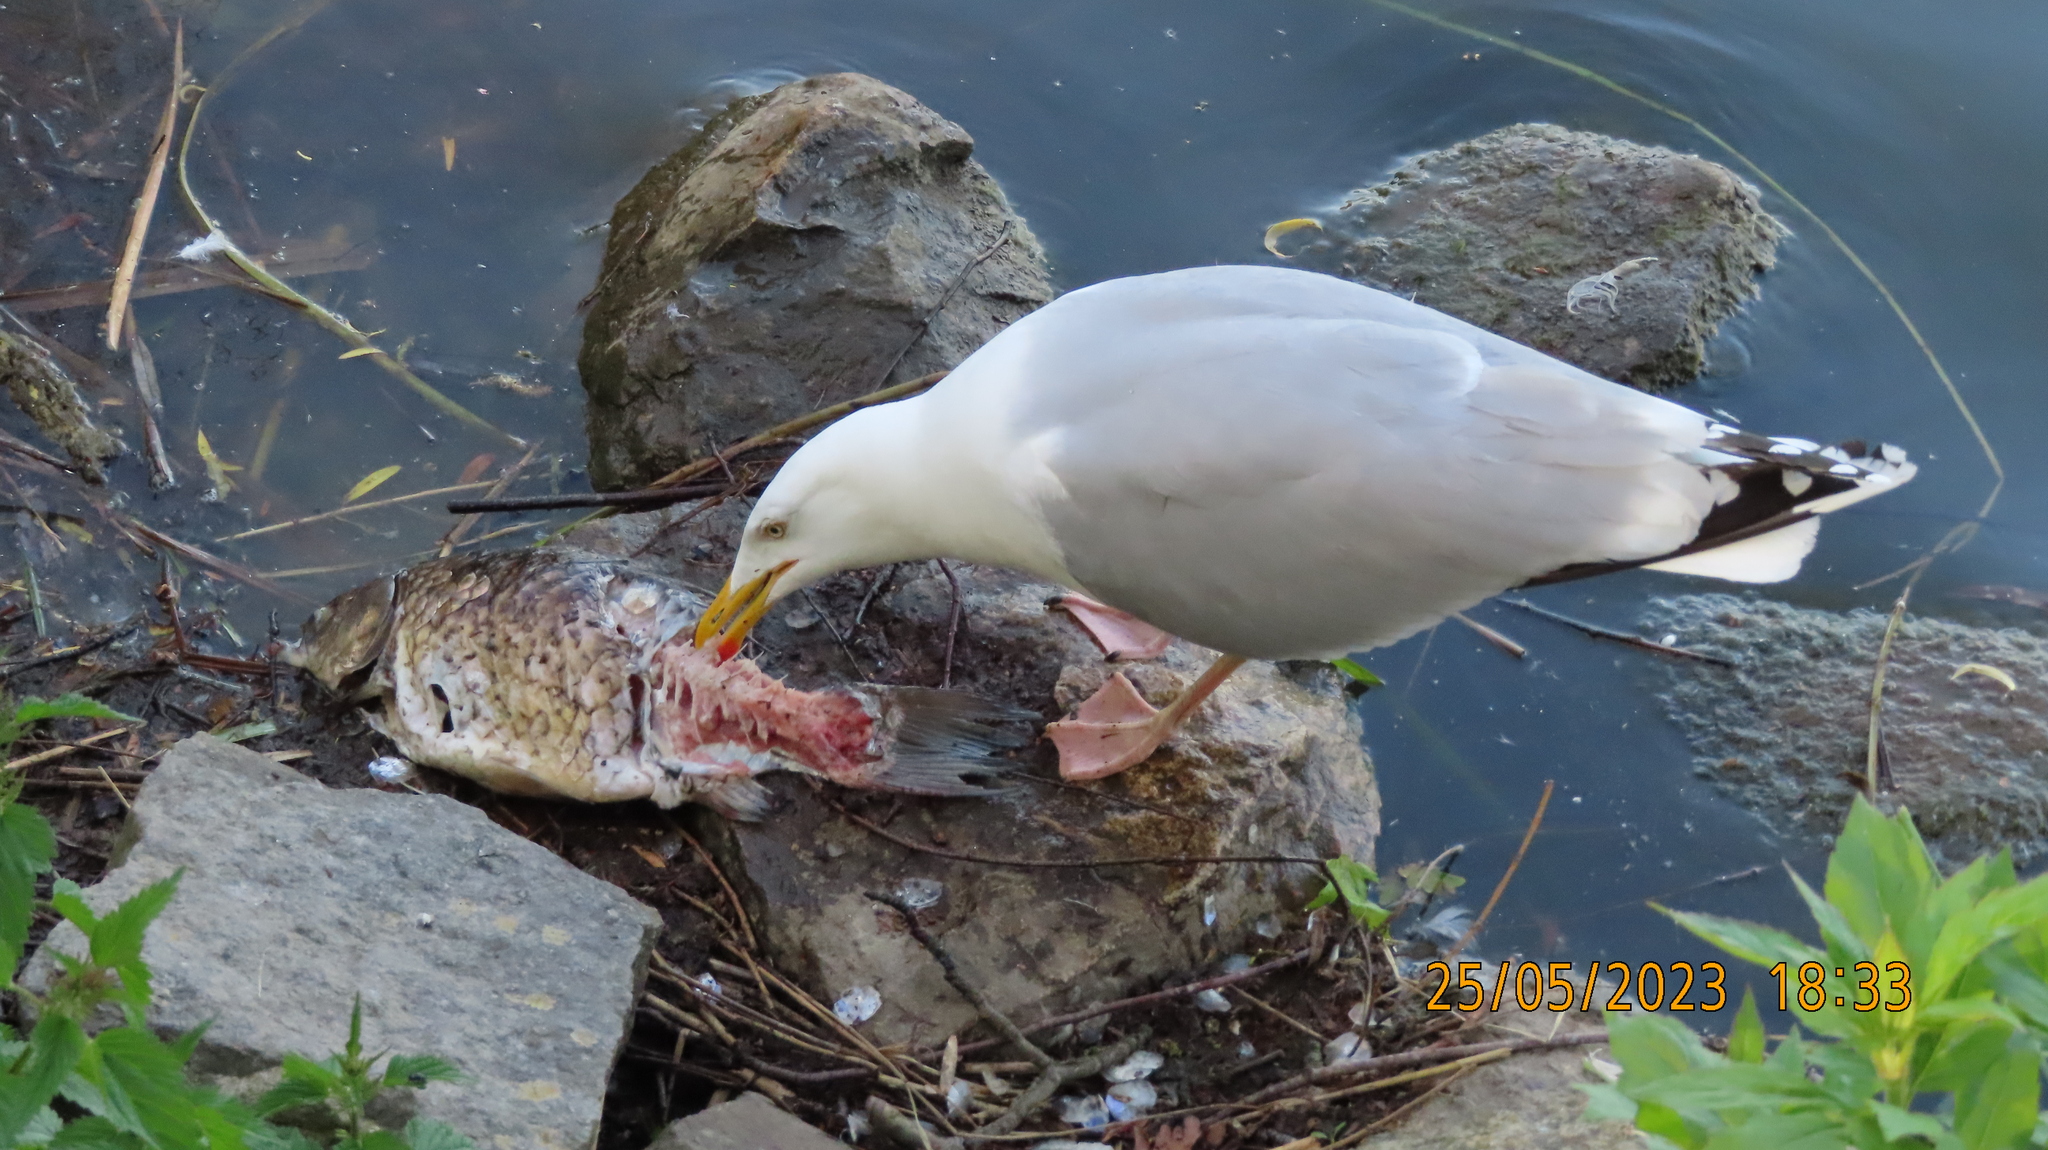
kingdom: Animalia
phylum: Chordata
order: Cypriniformes
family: Cyprinidae
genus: Carassius
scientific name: Carassius gibelio
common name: Prussian carp
